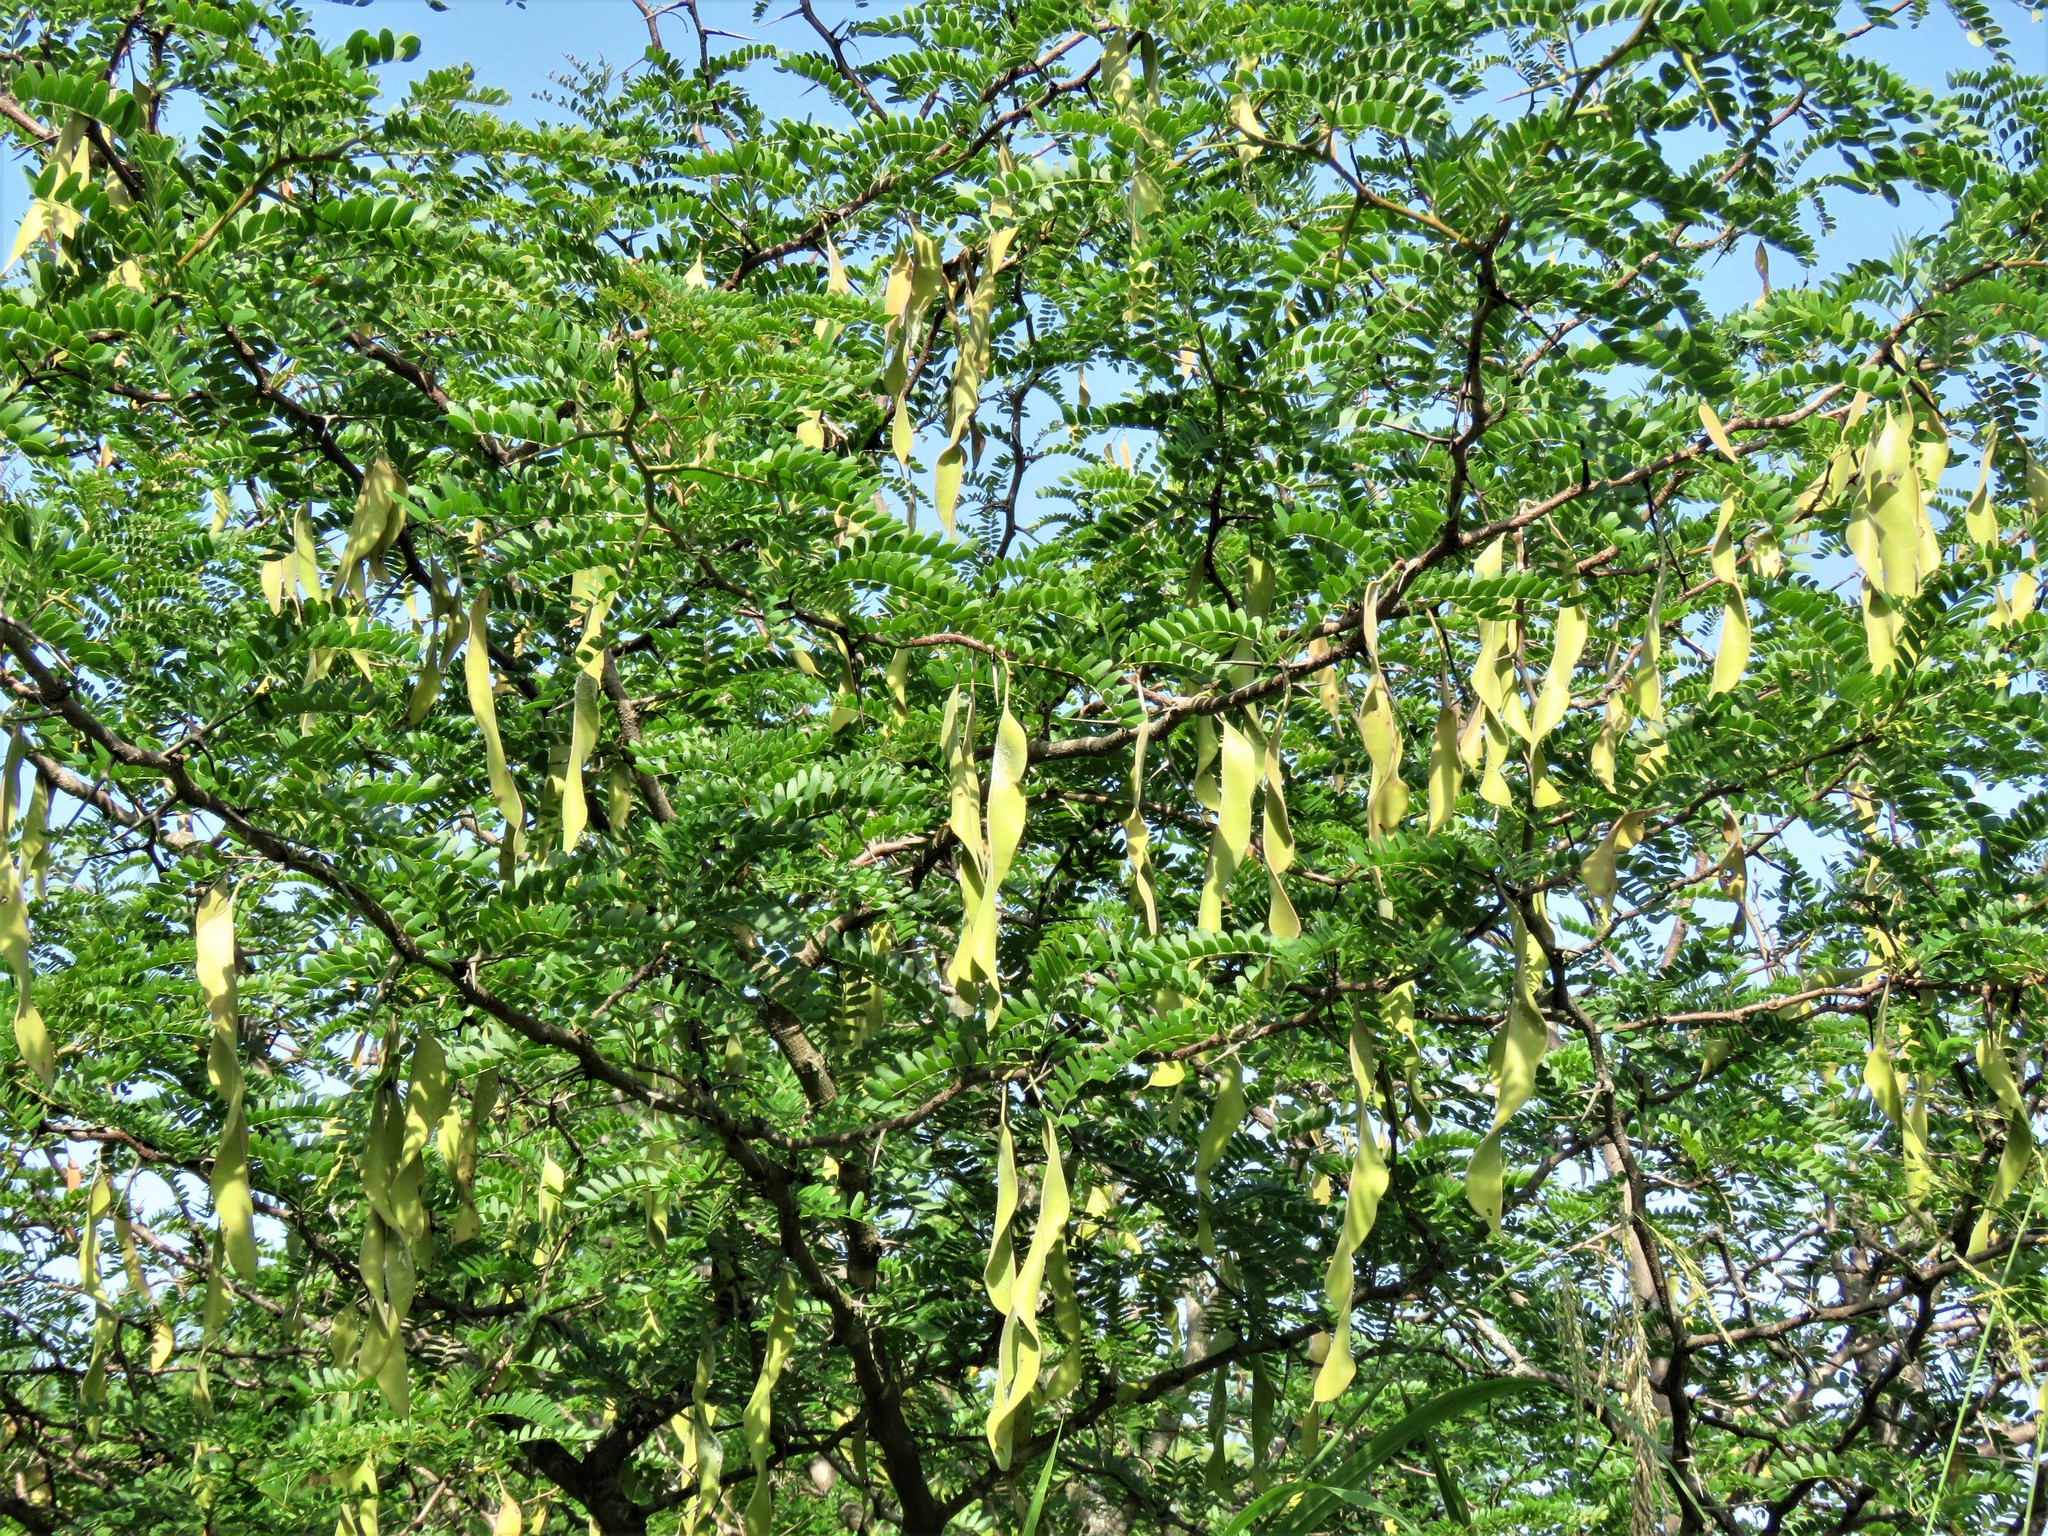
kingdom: Plantae
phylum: Tracheophyta
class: Magnoliopsida
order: Fabales
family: Fabaceae
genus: Gleditsia
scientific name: Gleditsia triacanthos
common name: Common honeylocust
